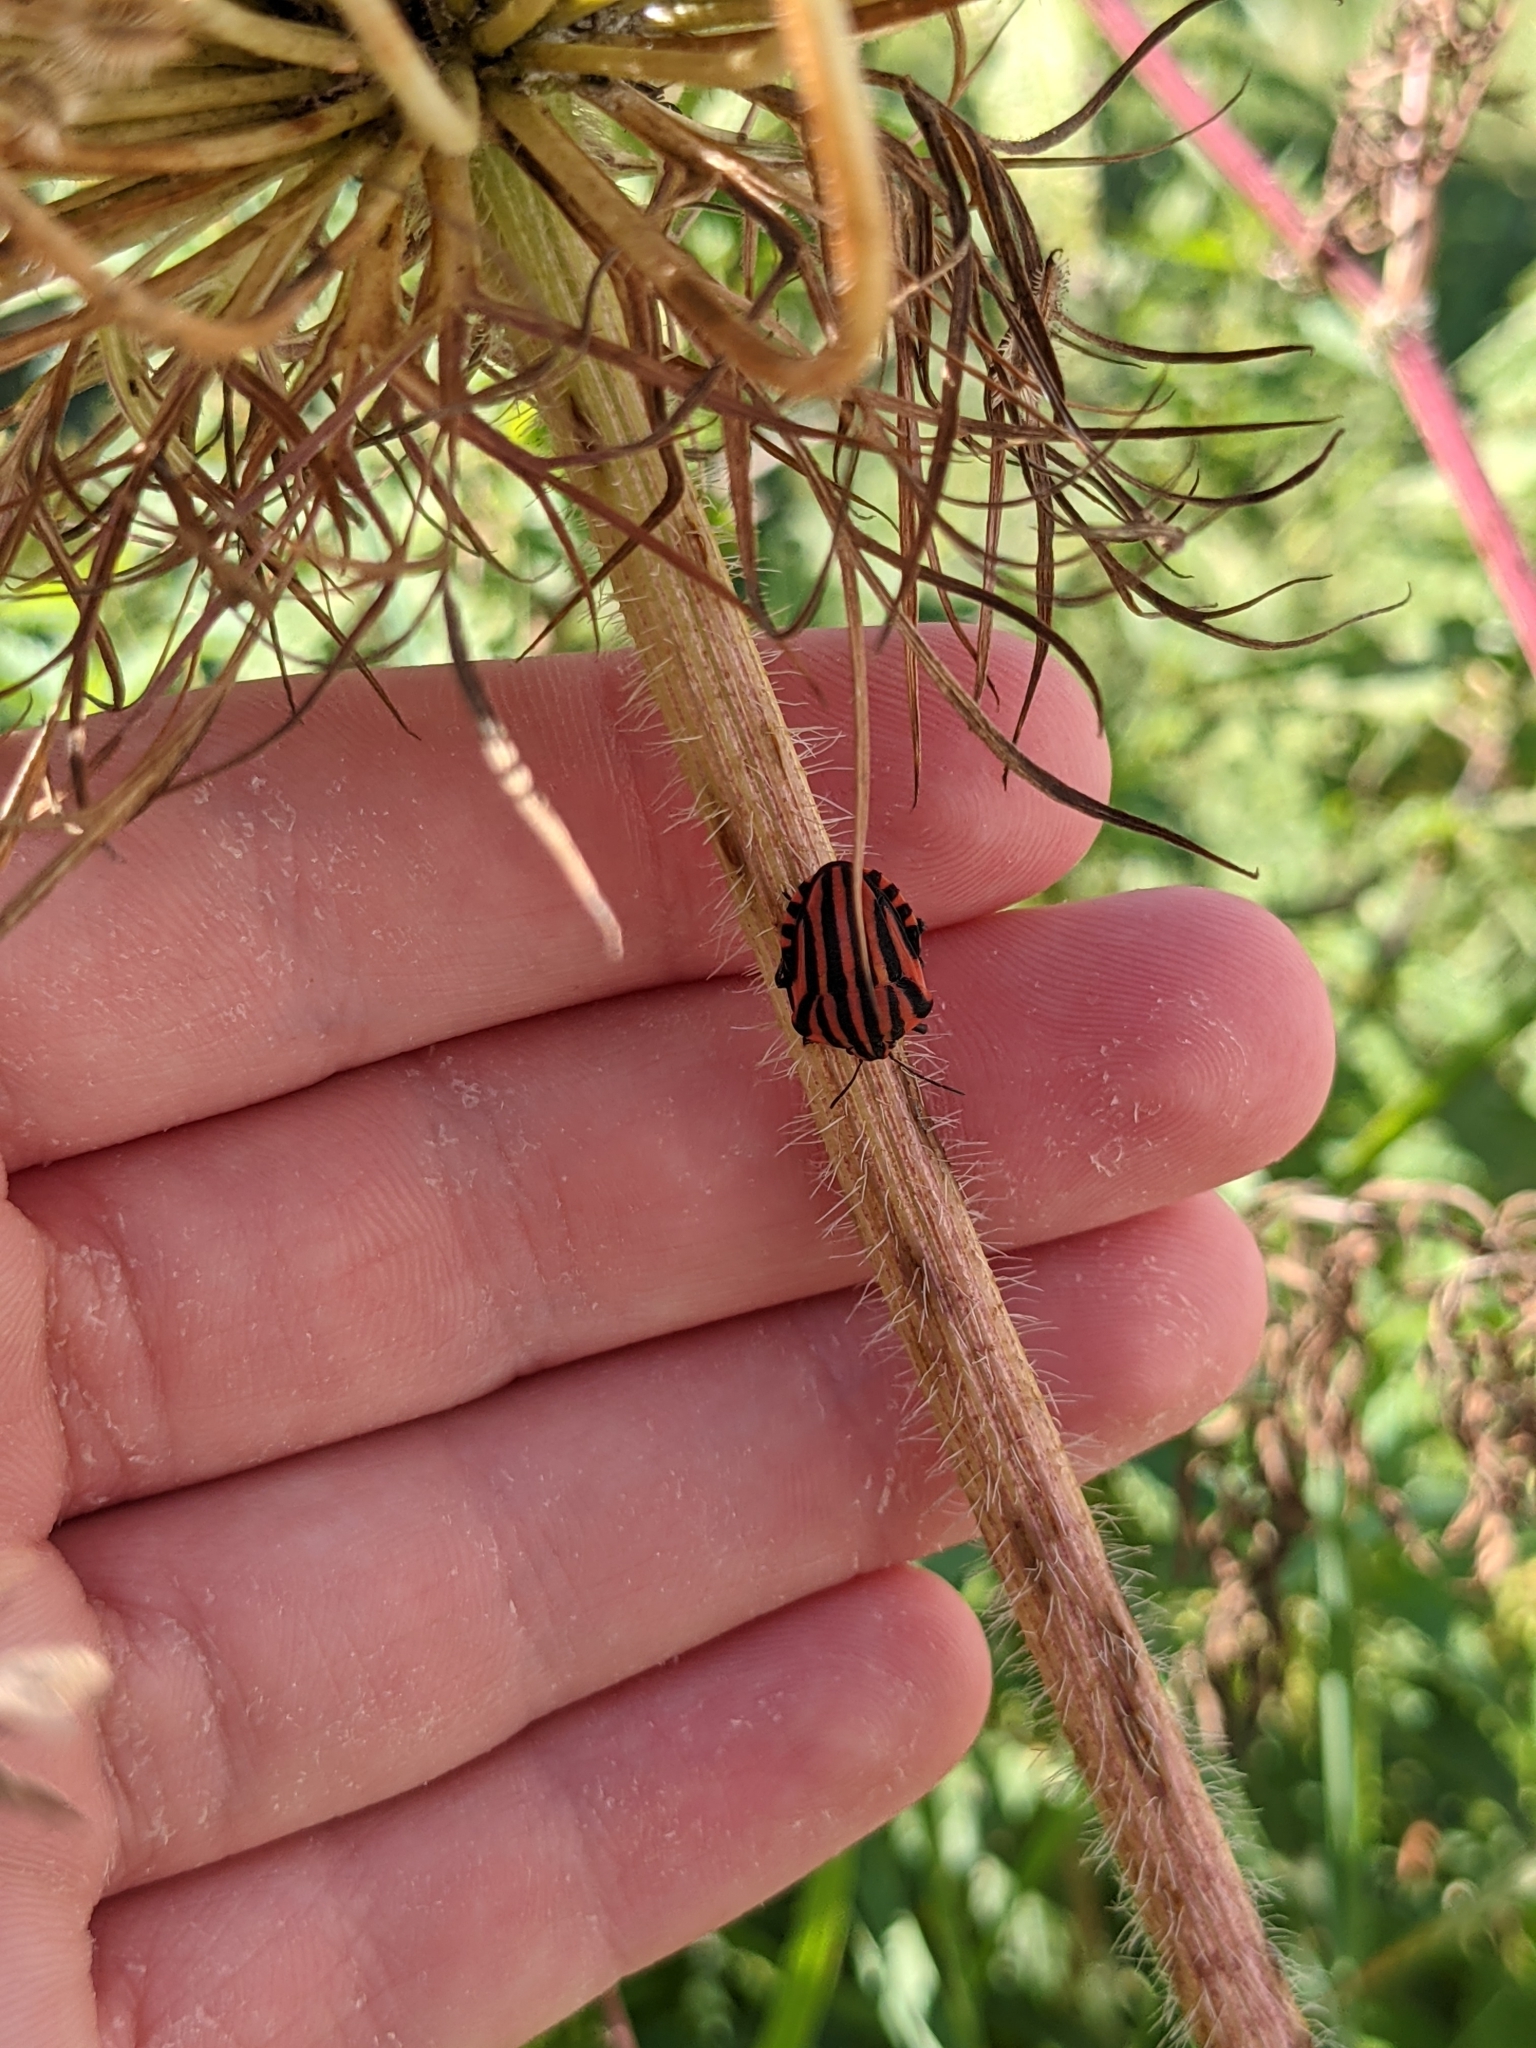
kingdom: Animalia
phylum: Arthropoda
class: Insecta
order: Hemiptera
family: Pentatomidae
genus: Graphosoma
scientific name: Graphosoma italicum
